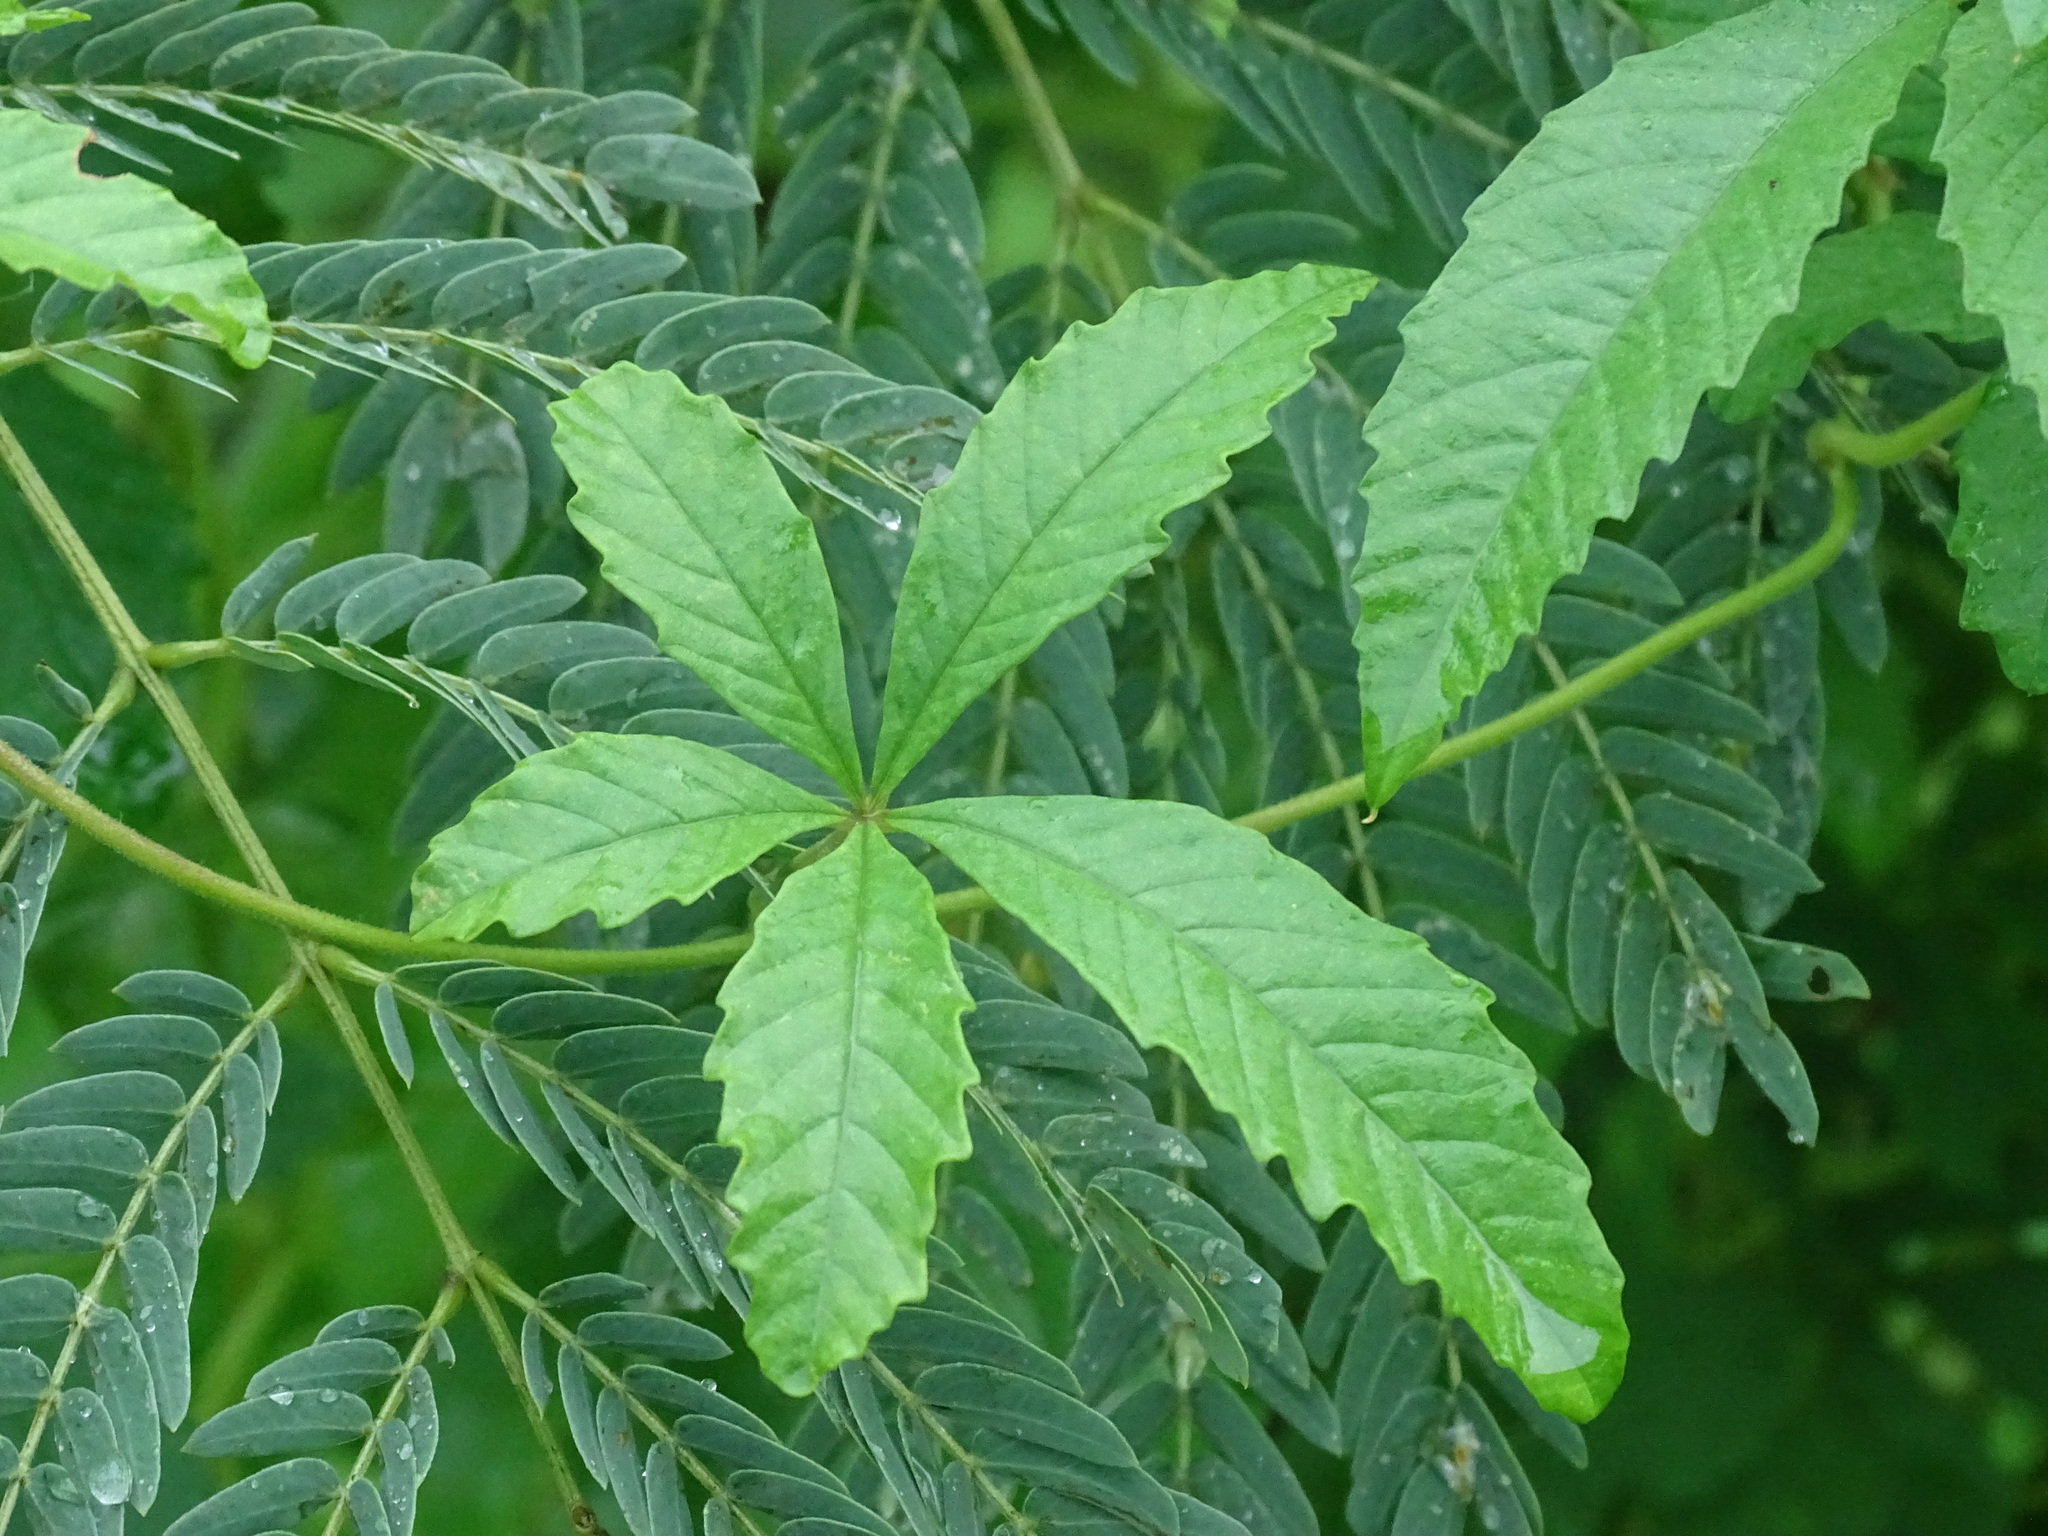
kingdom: Plantae
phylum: Tracheophyta
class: Magnoliopsida
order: Solanales
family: Convolvulaceae
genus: Distimake
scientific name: Distimake cissoides
